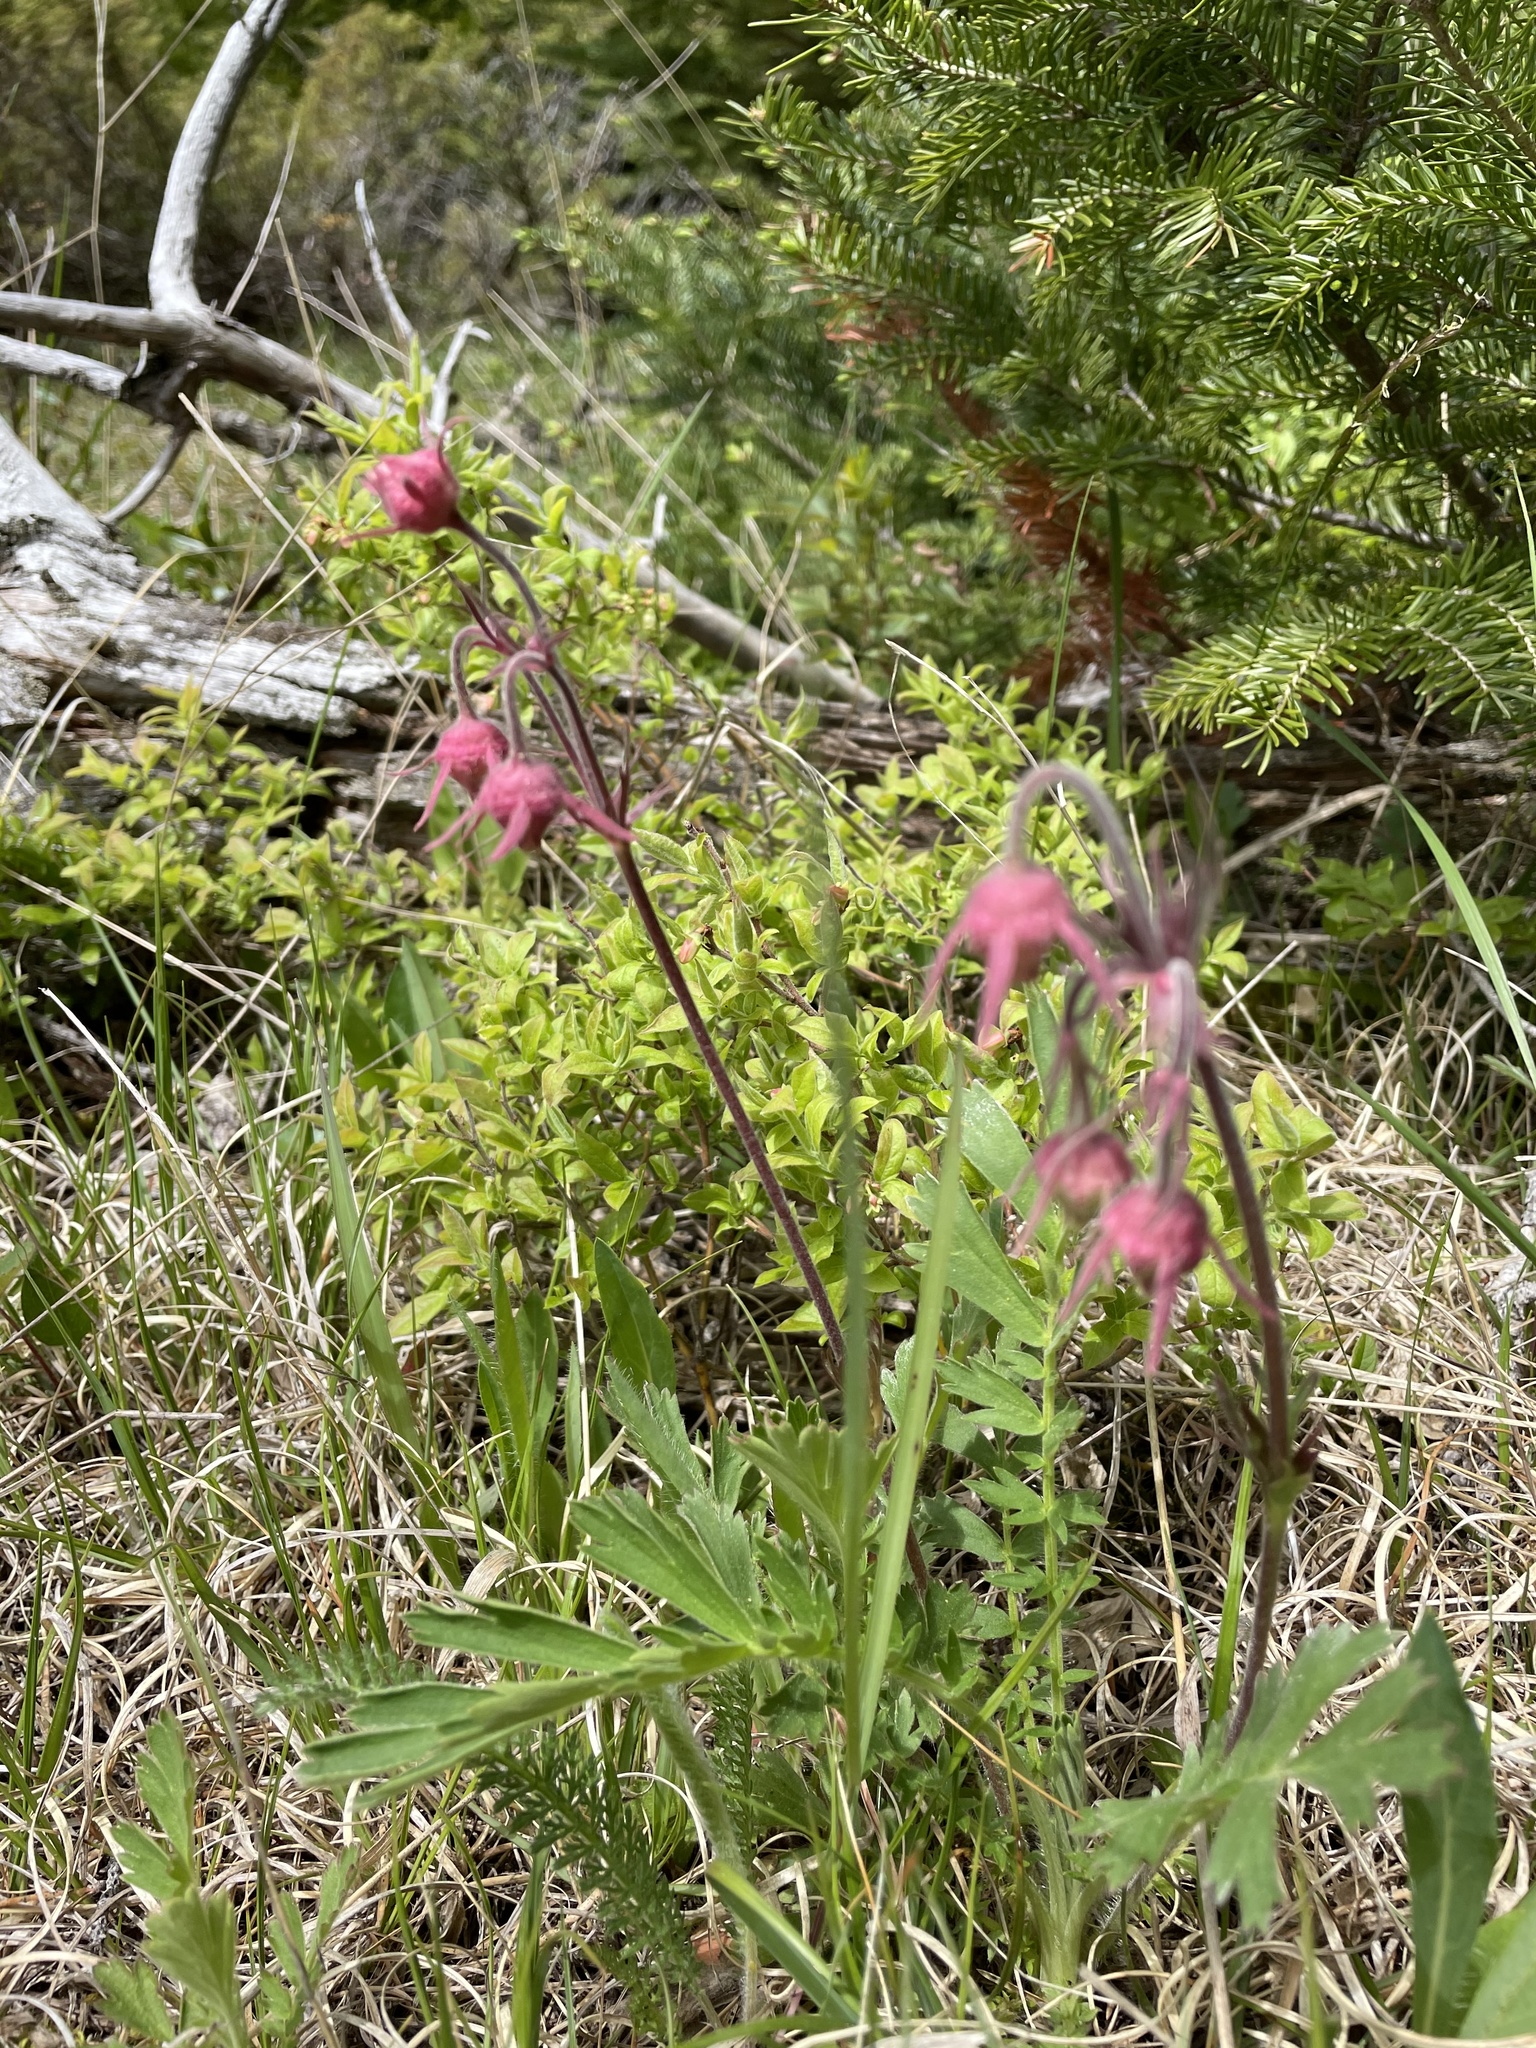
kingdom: Plantae
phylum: Tracheophyta
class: Magnoliopsida
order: Rosales
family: Rosaceae
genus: Geum
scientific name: Geum triflorum
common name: Old man's whiskers
